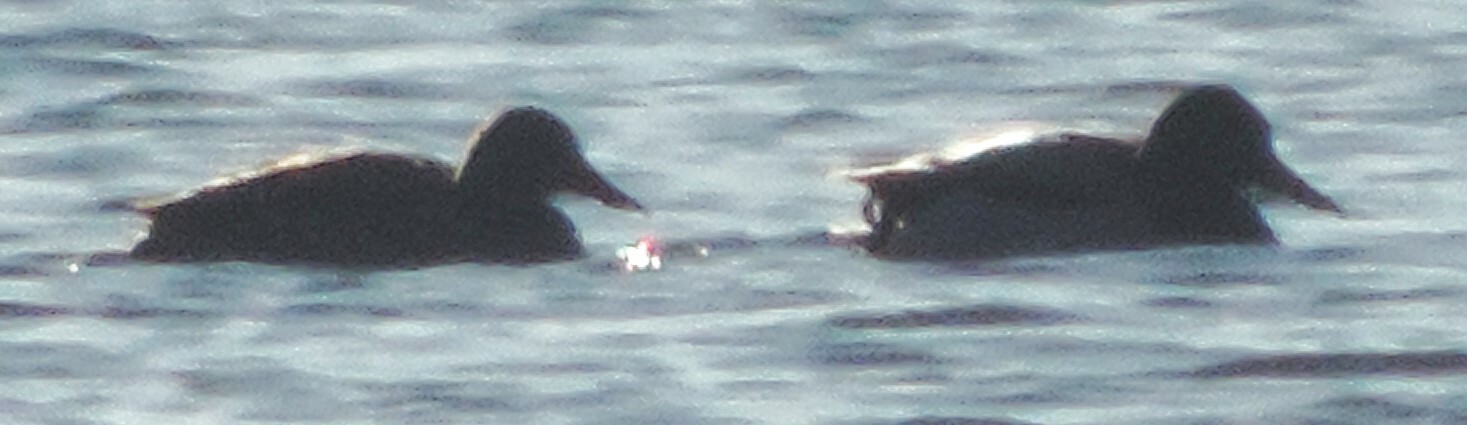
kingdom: Animalia
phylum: Chordata
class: Aves
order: Anseriformes
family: Anatidae
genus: Anas
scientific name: Anas platyrhynchos
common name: Mallard
